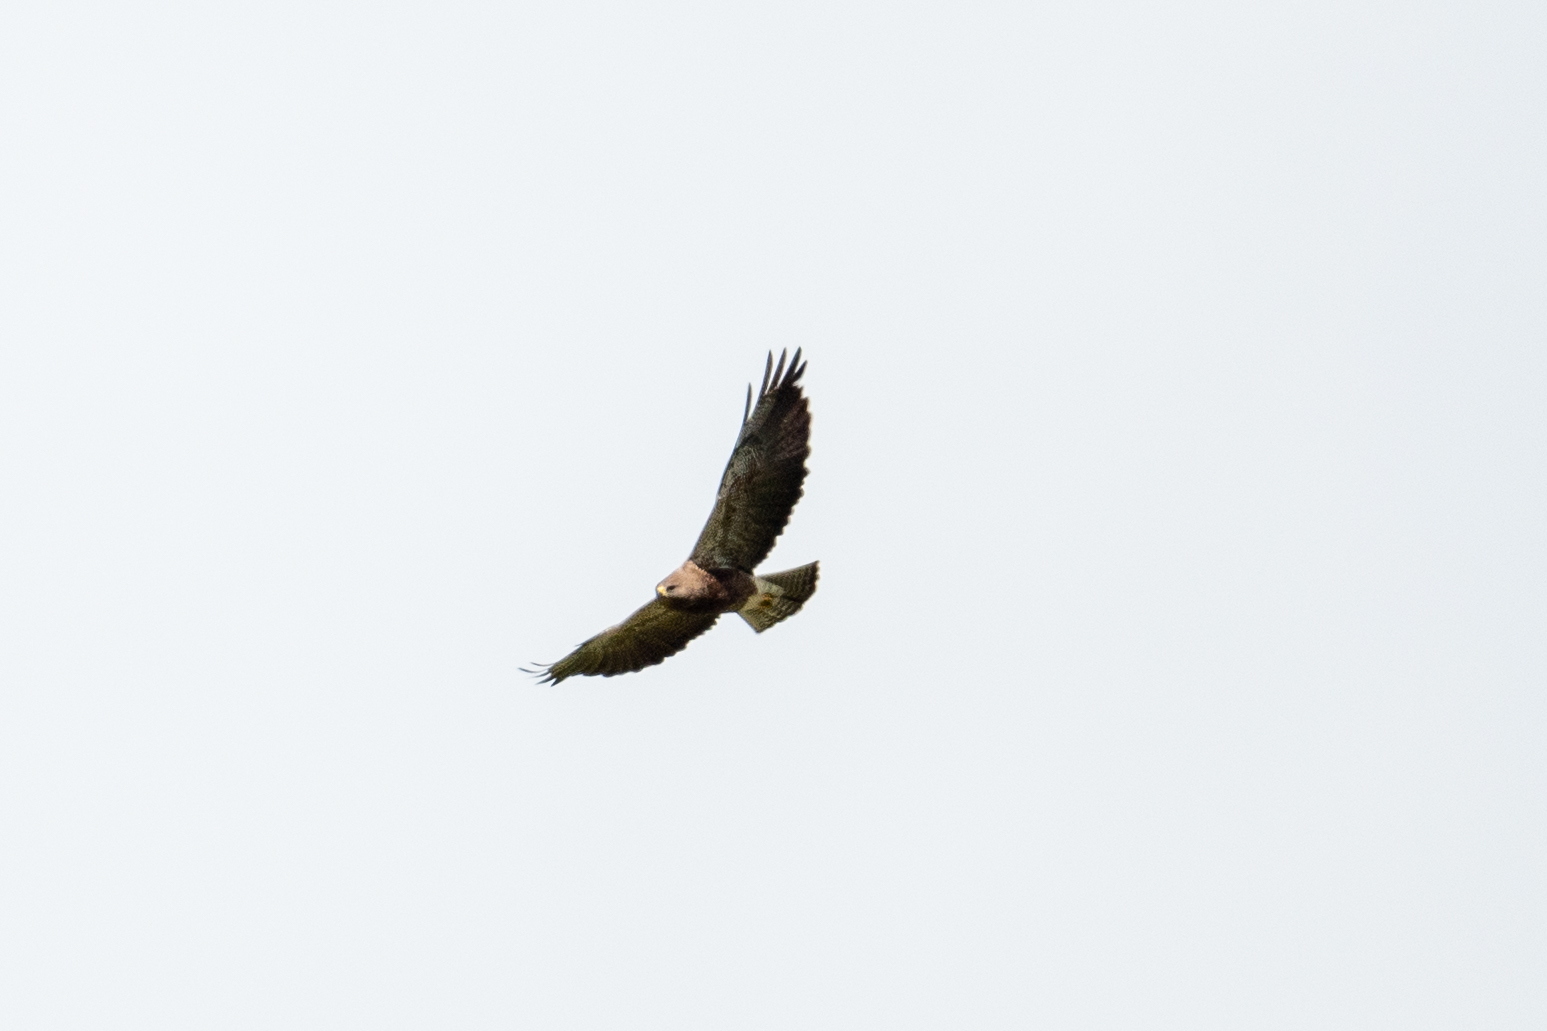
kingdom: Animalia
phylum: Chordata
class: Aves
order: Accipitriformes
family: Accipitridae
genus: Buteo
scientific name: Buteo swainsoni
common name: Swainson's hawk
